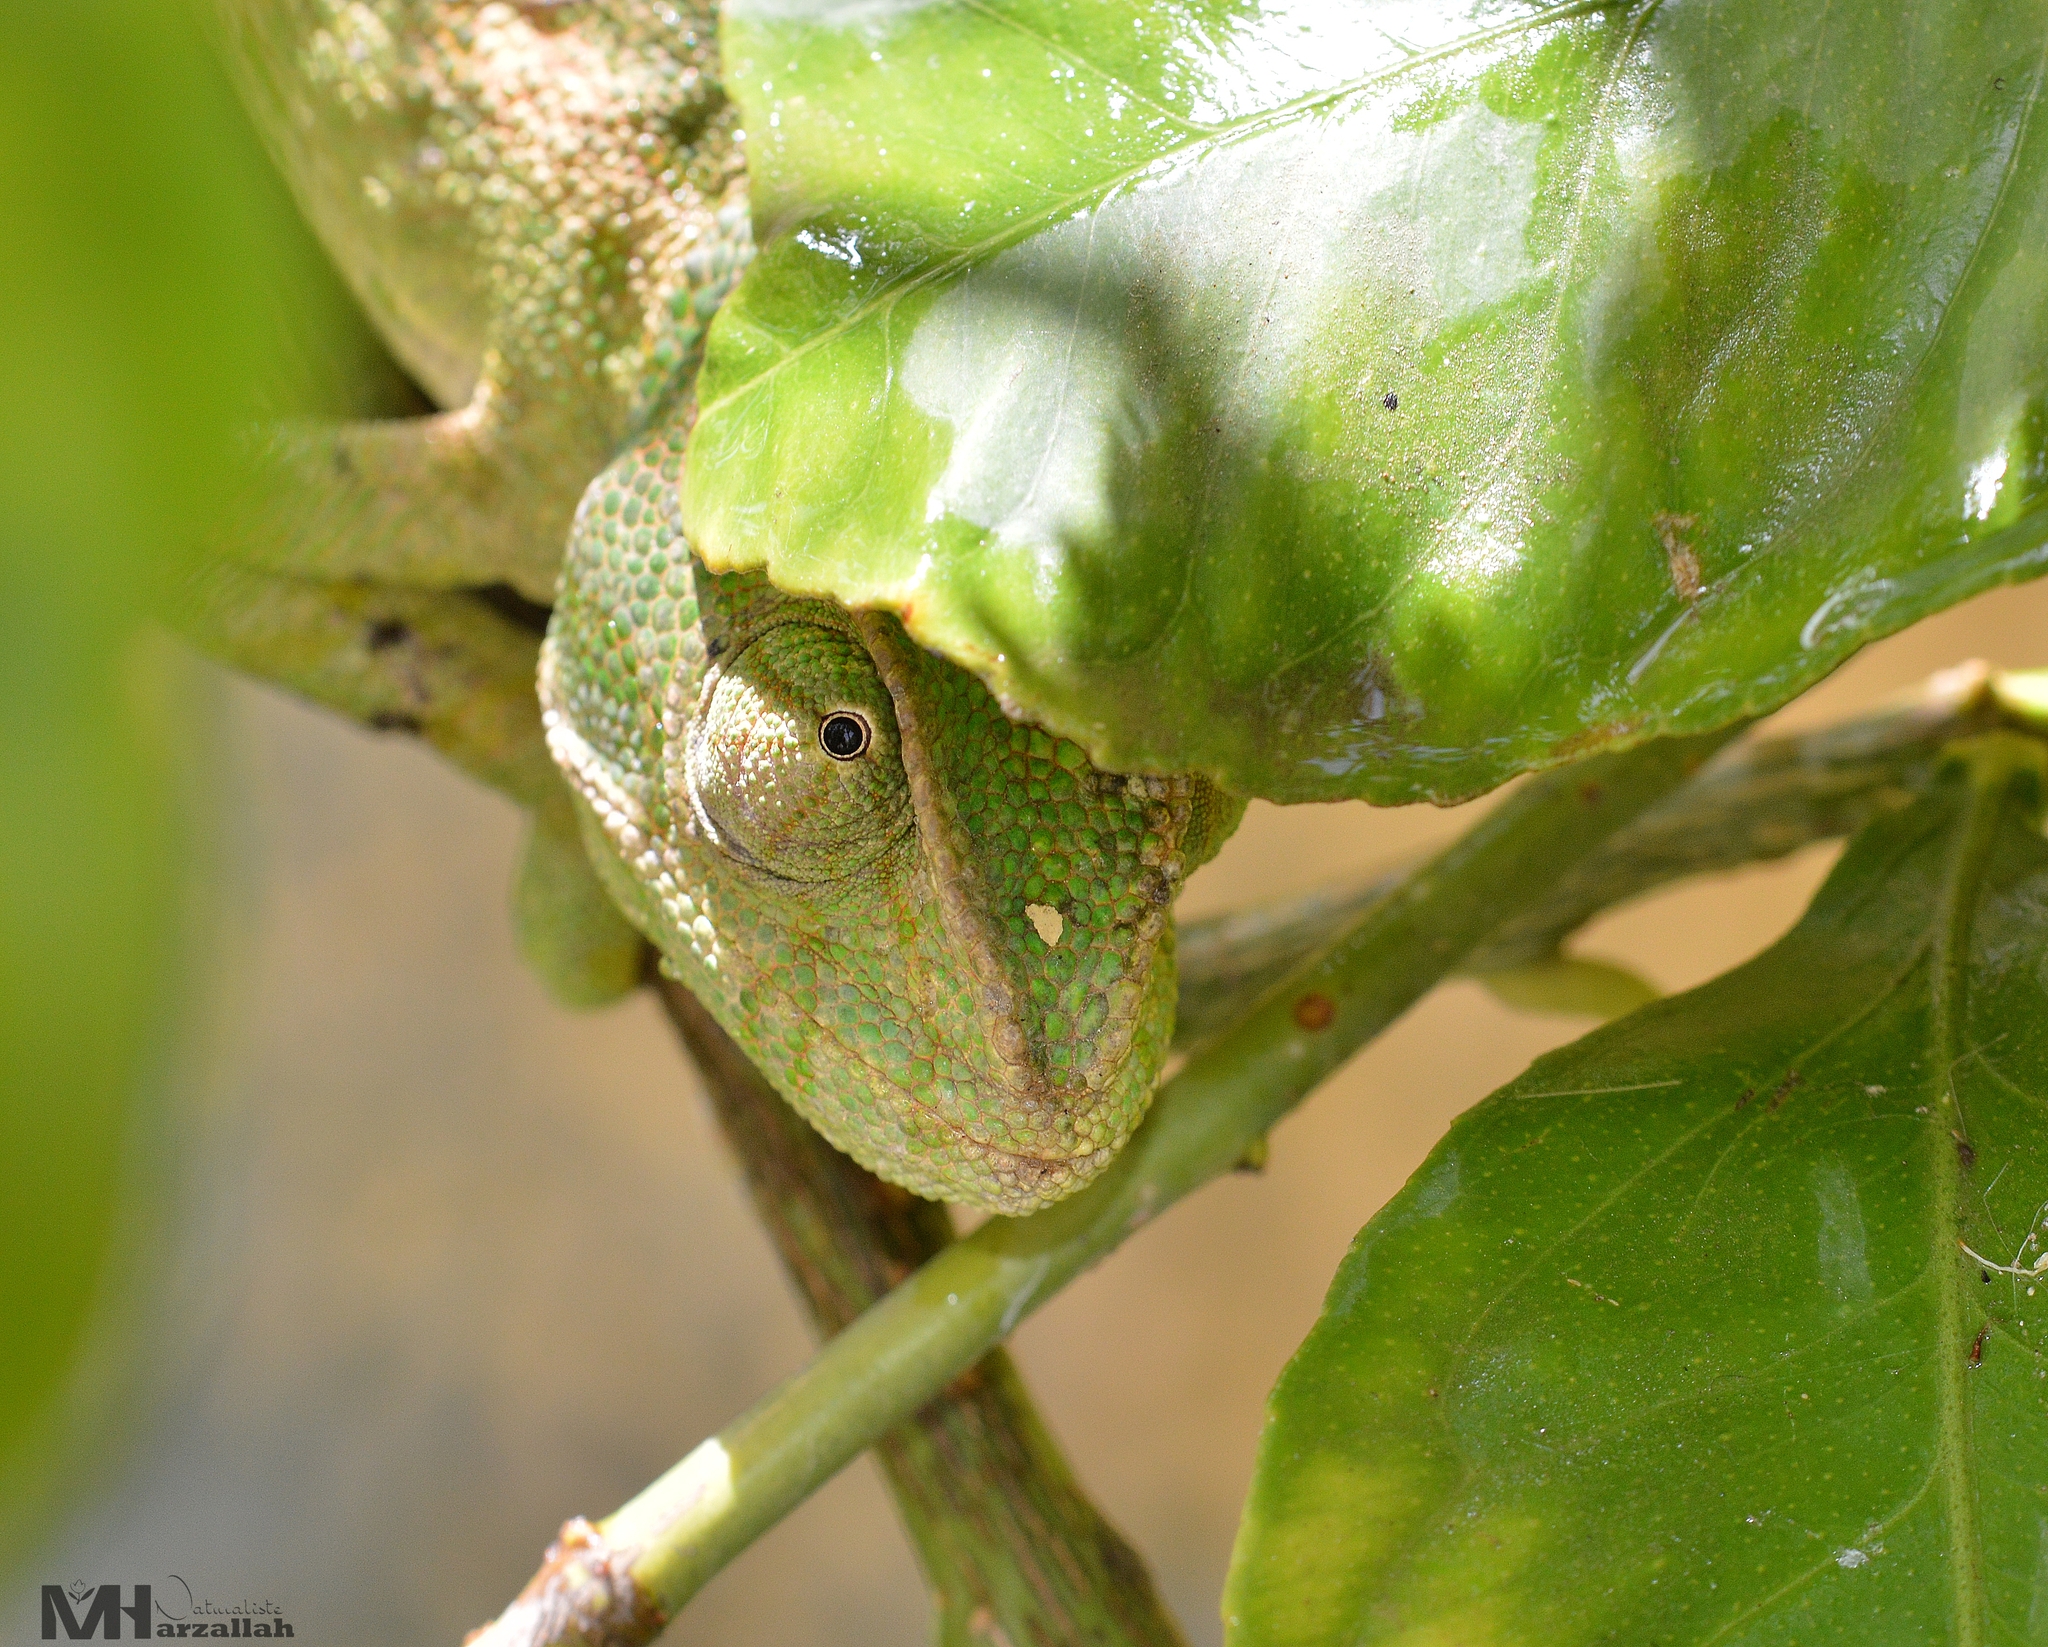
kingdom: Animalia
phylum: Chordata
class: Squamata
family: Chamaeleonidae
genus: Chamaeleo
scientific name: Chamaeleo chamaeleon
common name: Mediterranean chameleon
